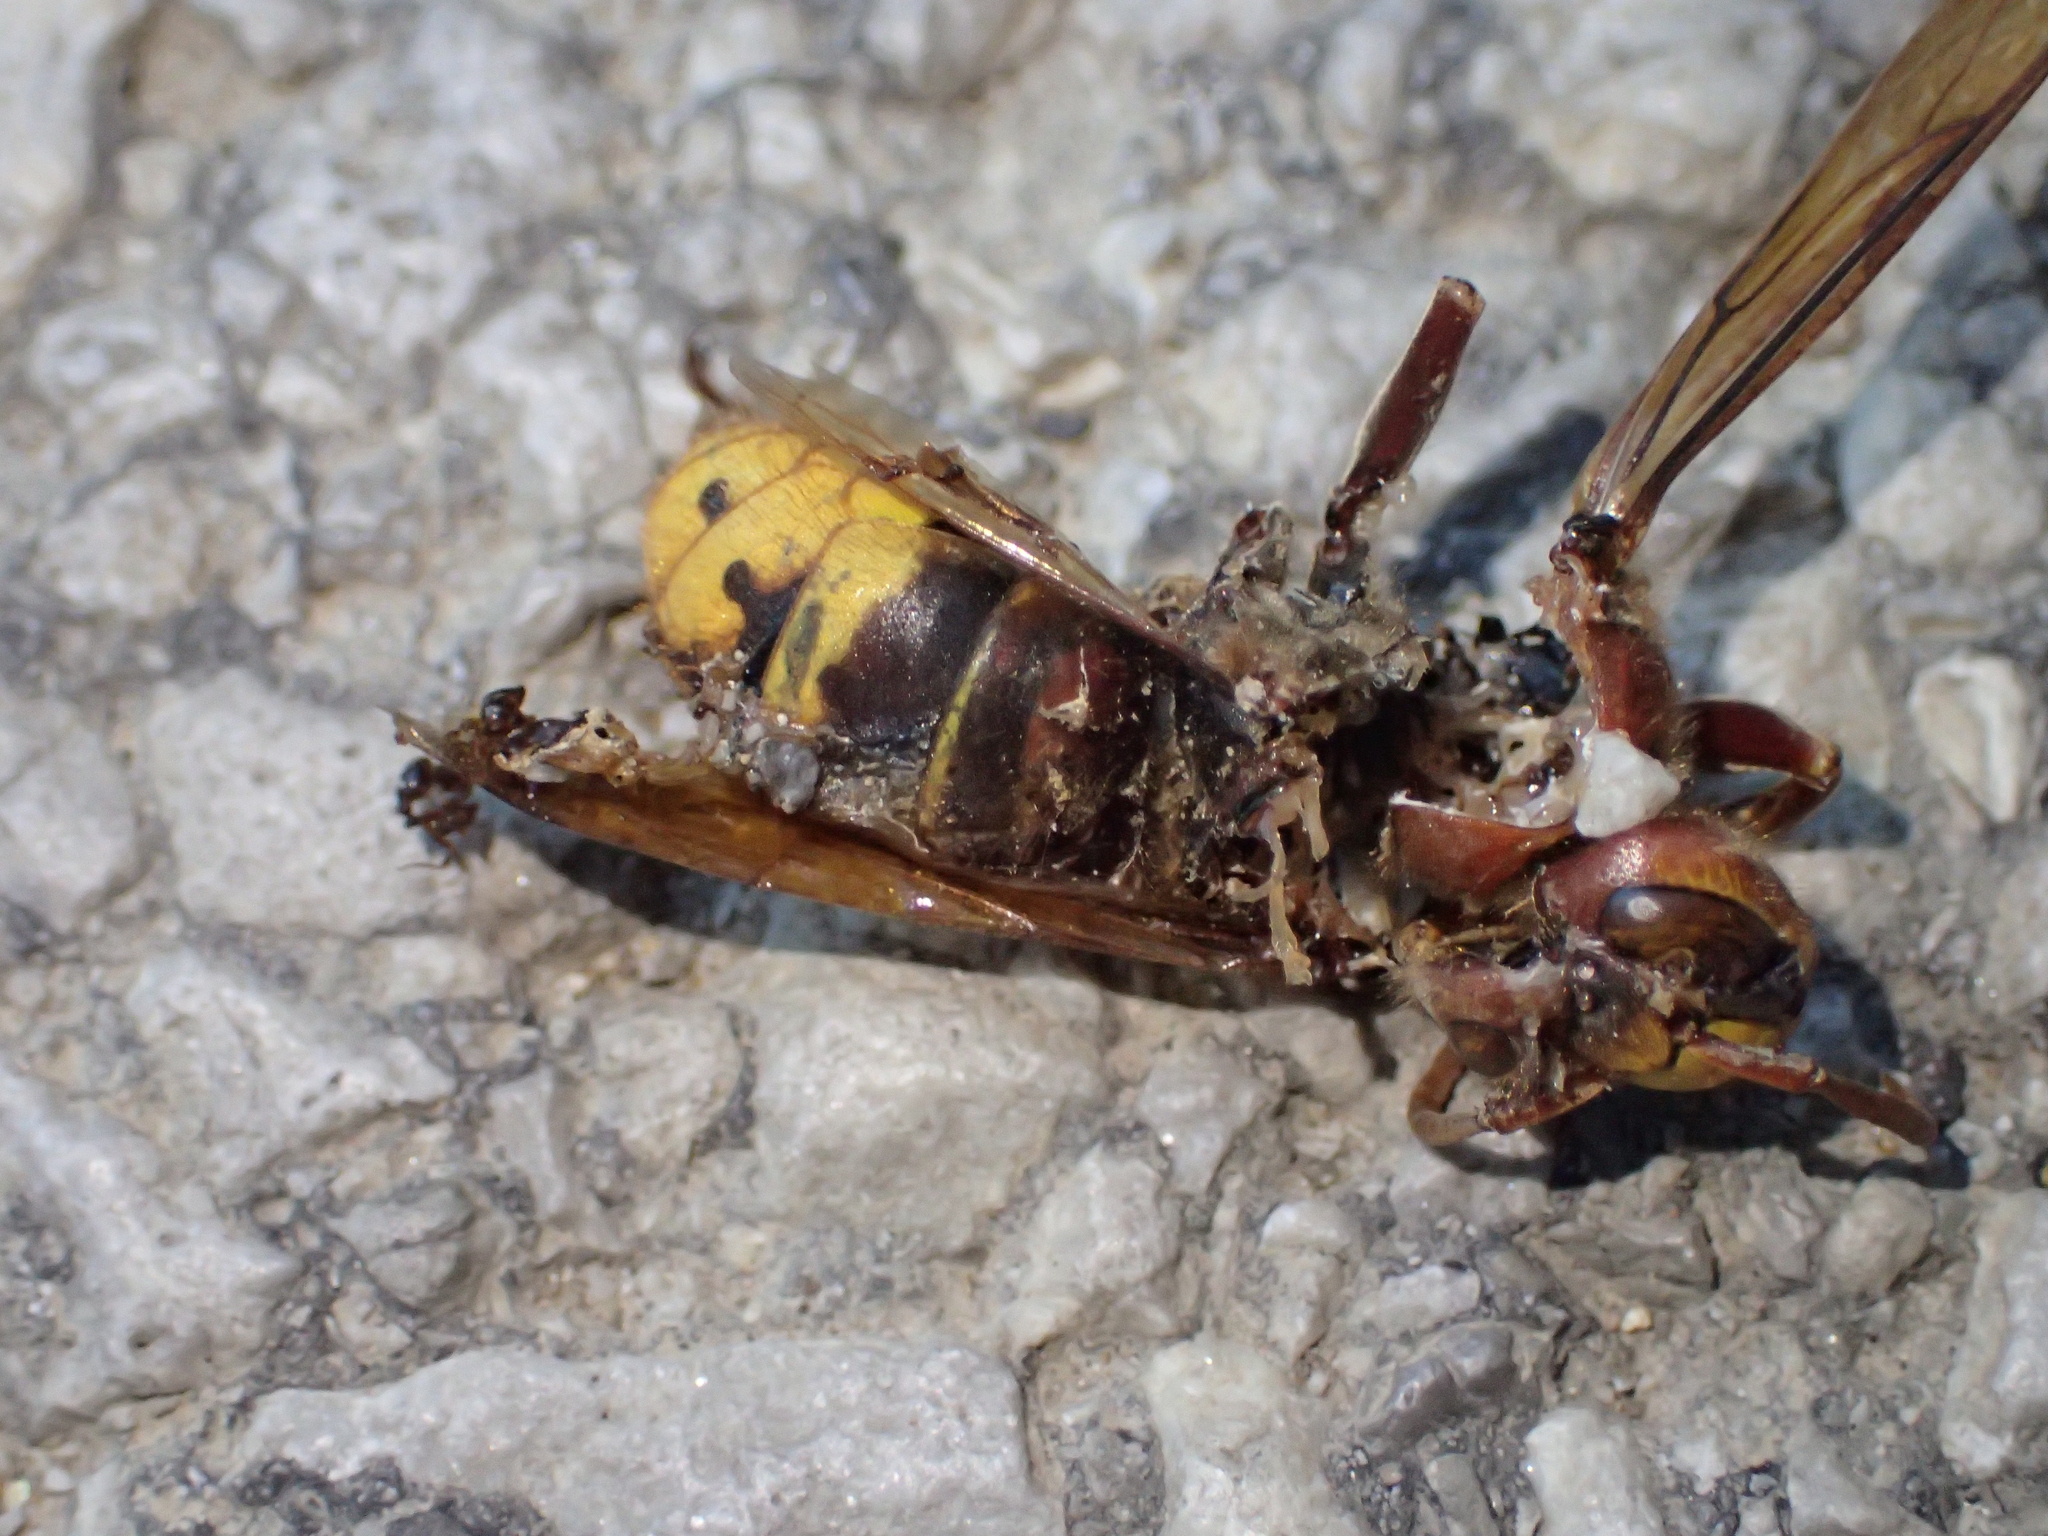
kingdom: Animalia
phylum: Arthropoda
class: Insecta
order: Hymenoptera
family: Vespidae
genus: Vespa
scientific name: Vespa crabro
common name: Hornet
